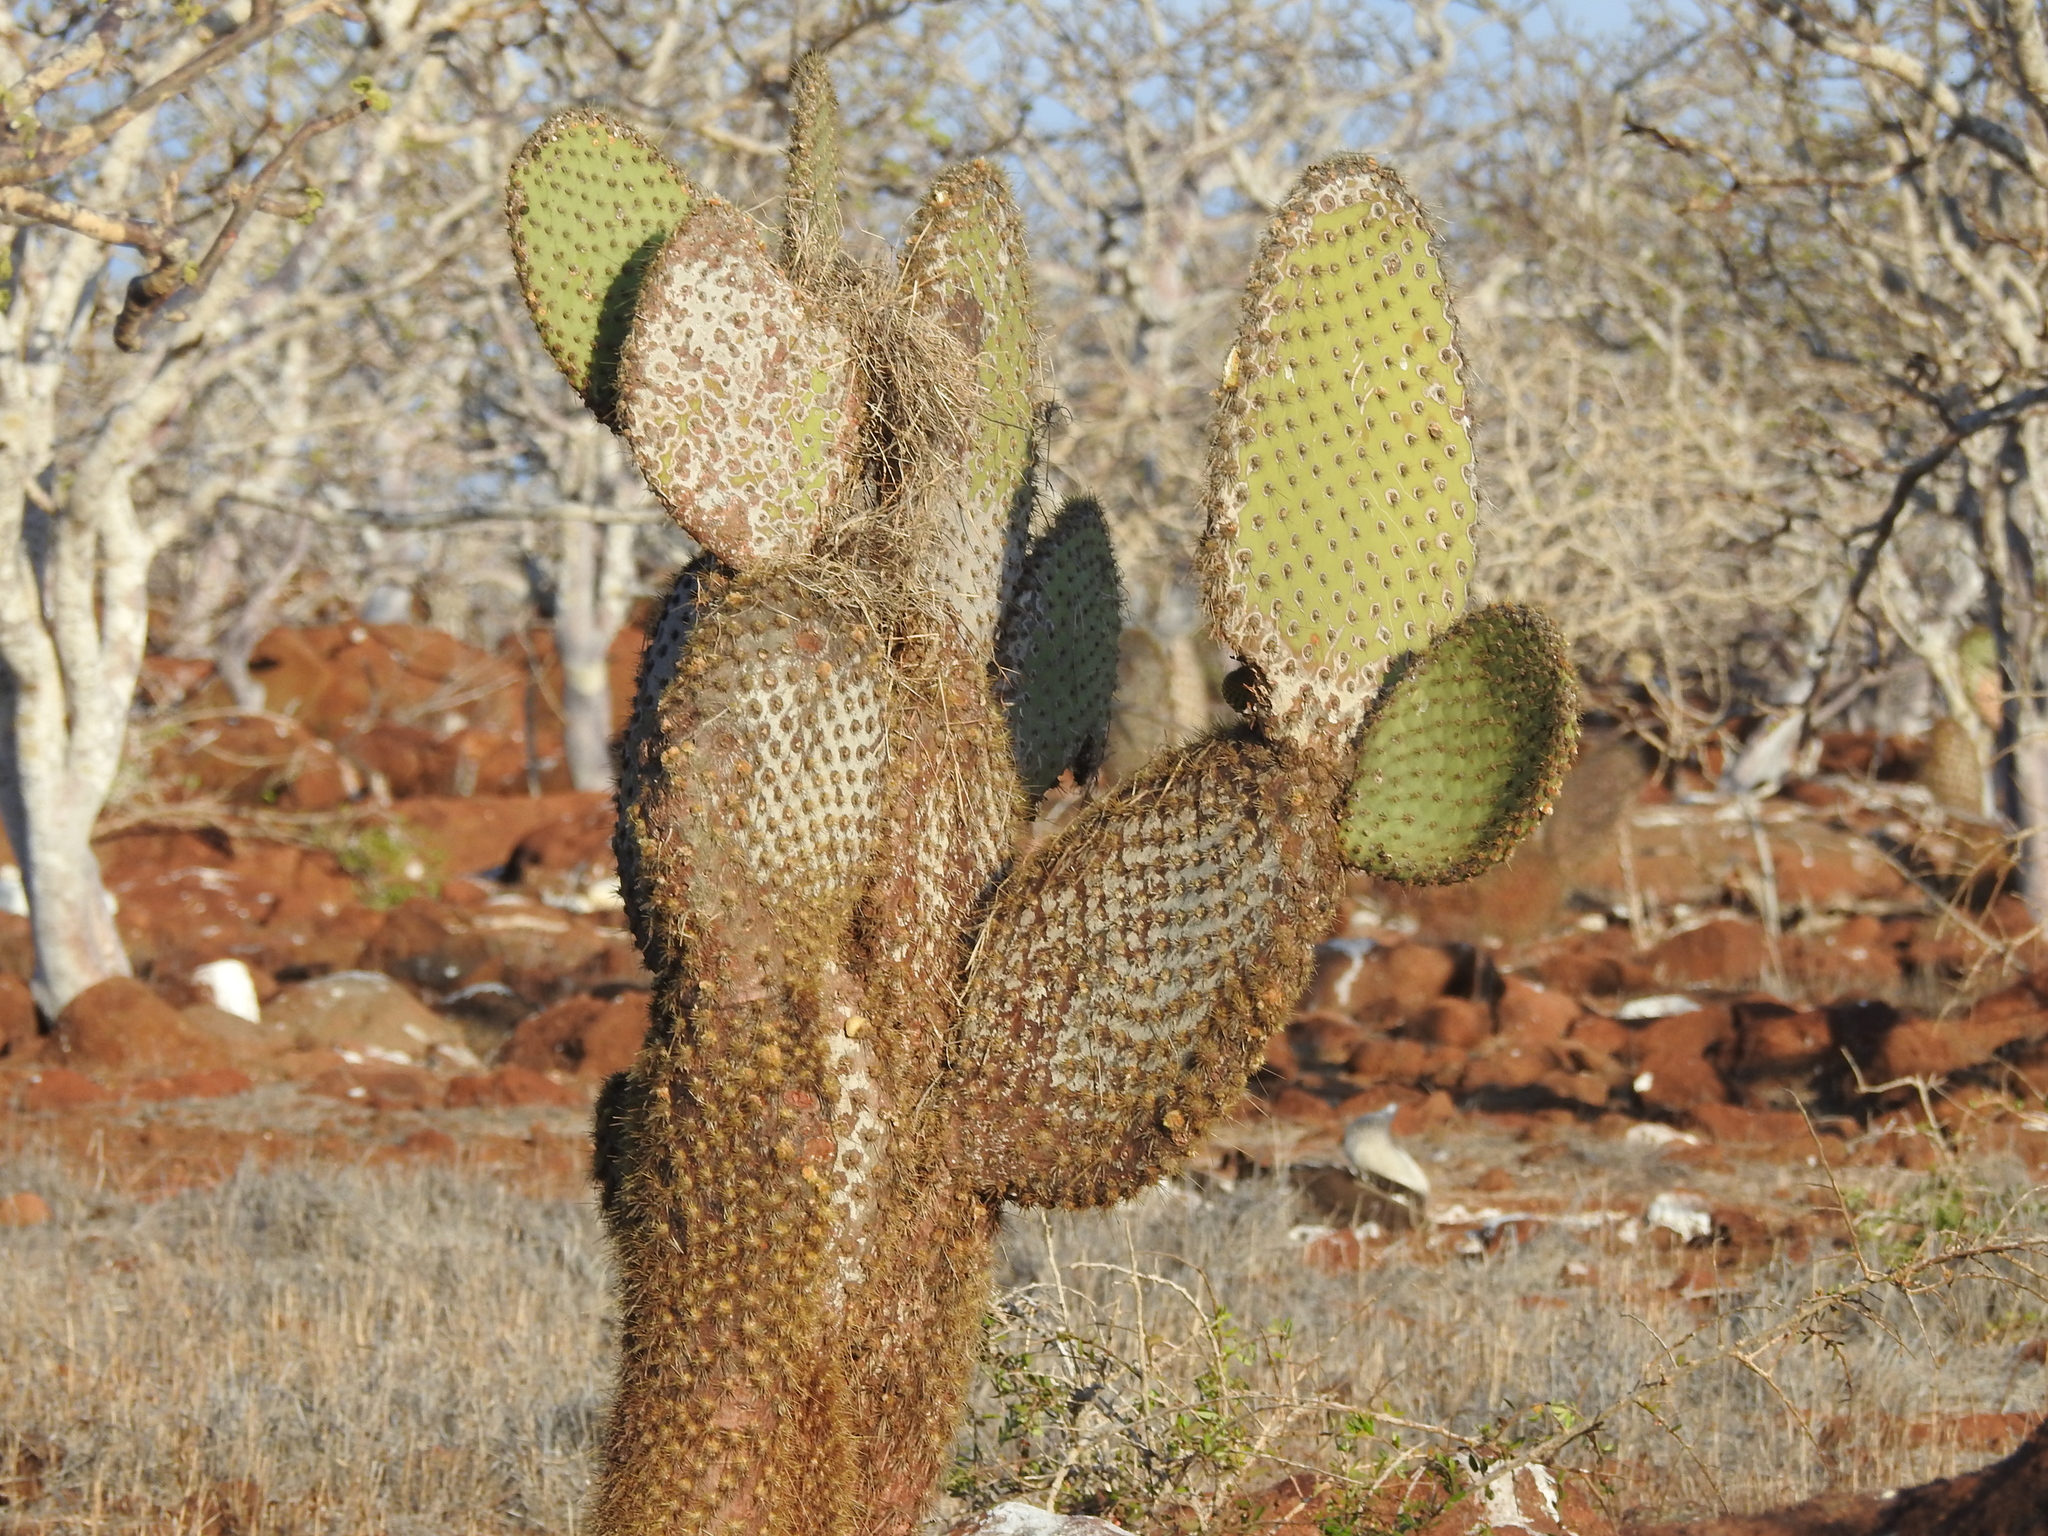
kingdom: Plantae
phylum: Tracheophyta
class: Magnoliopsida
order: Caryophyllales
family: Cactaceae
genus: Opuntia
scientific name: Opuntia galapageia
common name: Galápagos prickly pear
